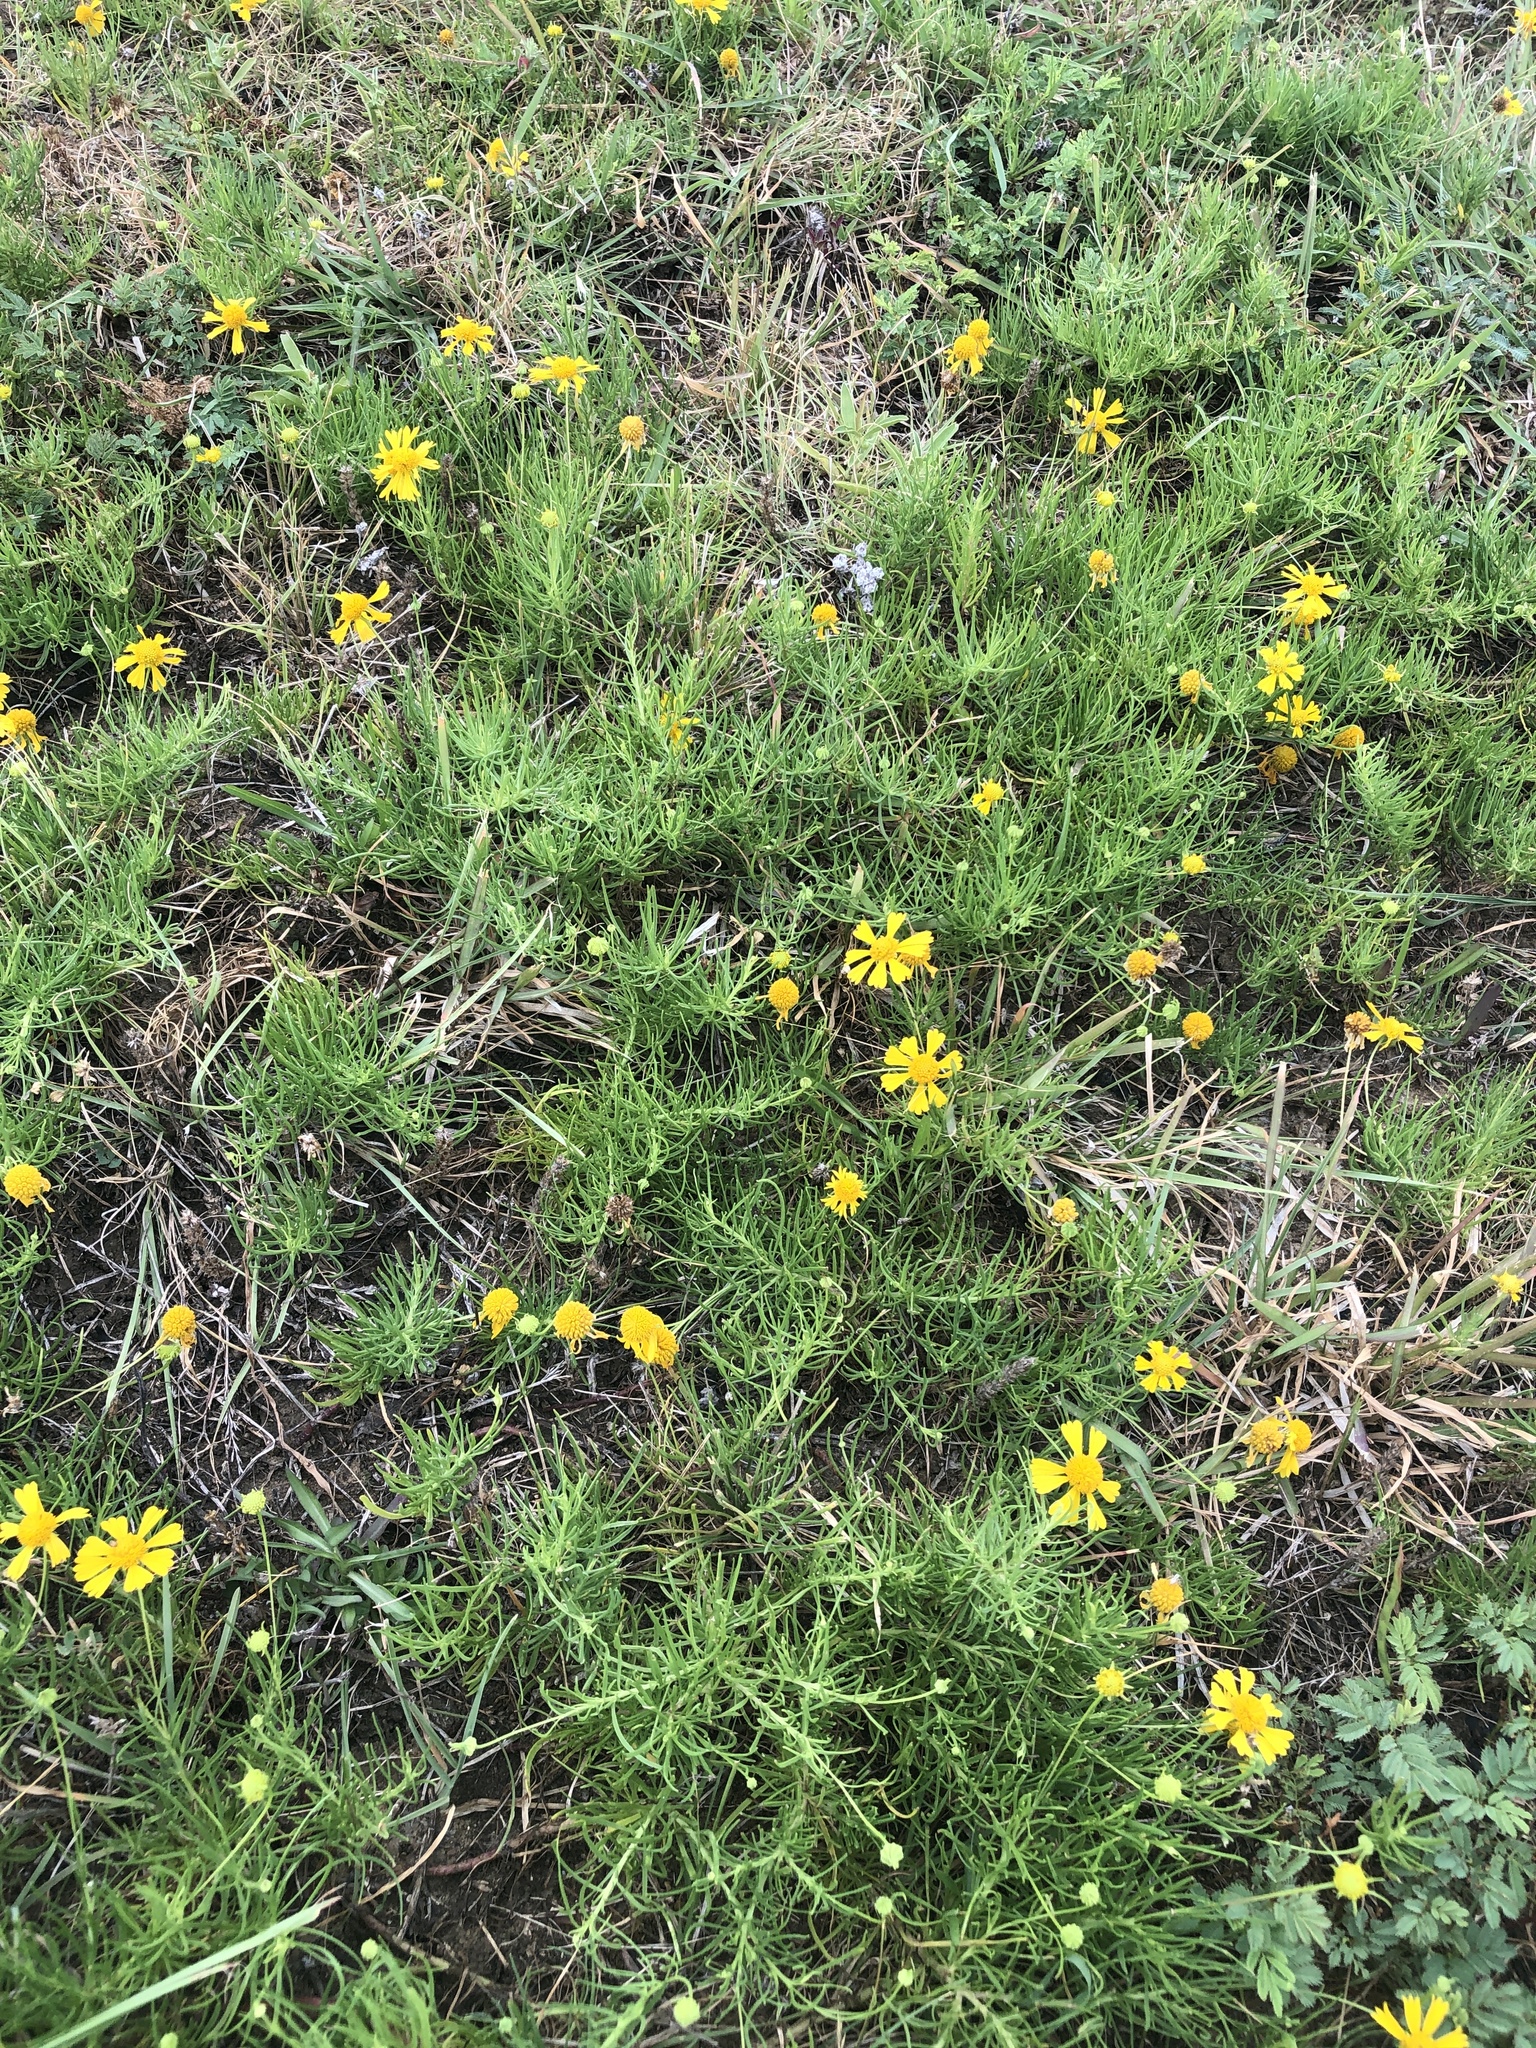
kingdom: Plantae
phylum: Tracheophyta
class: Magnoliopsida
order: Asterales
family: Asteraceae
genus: Helenium
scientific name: Helenium amarum
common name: Bitter sneezeweed
